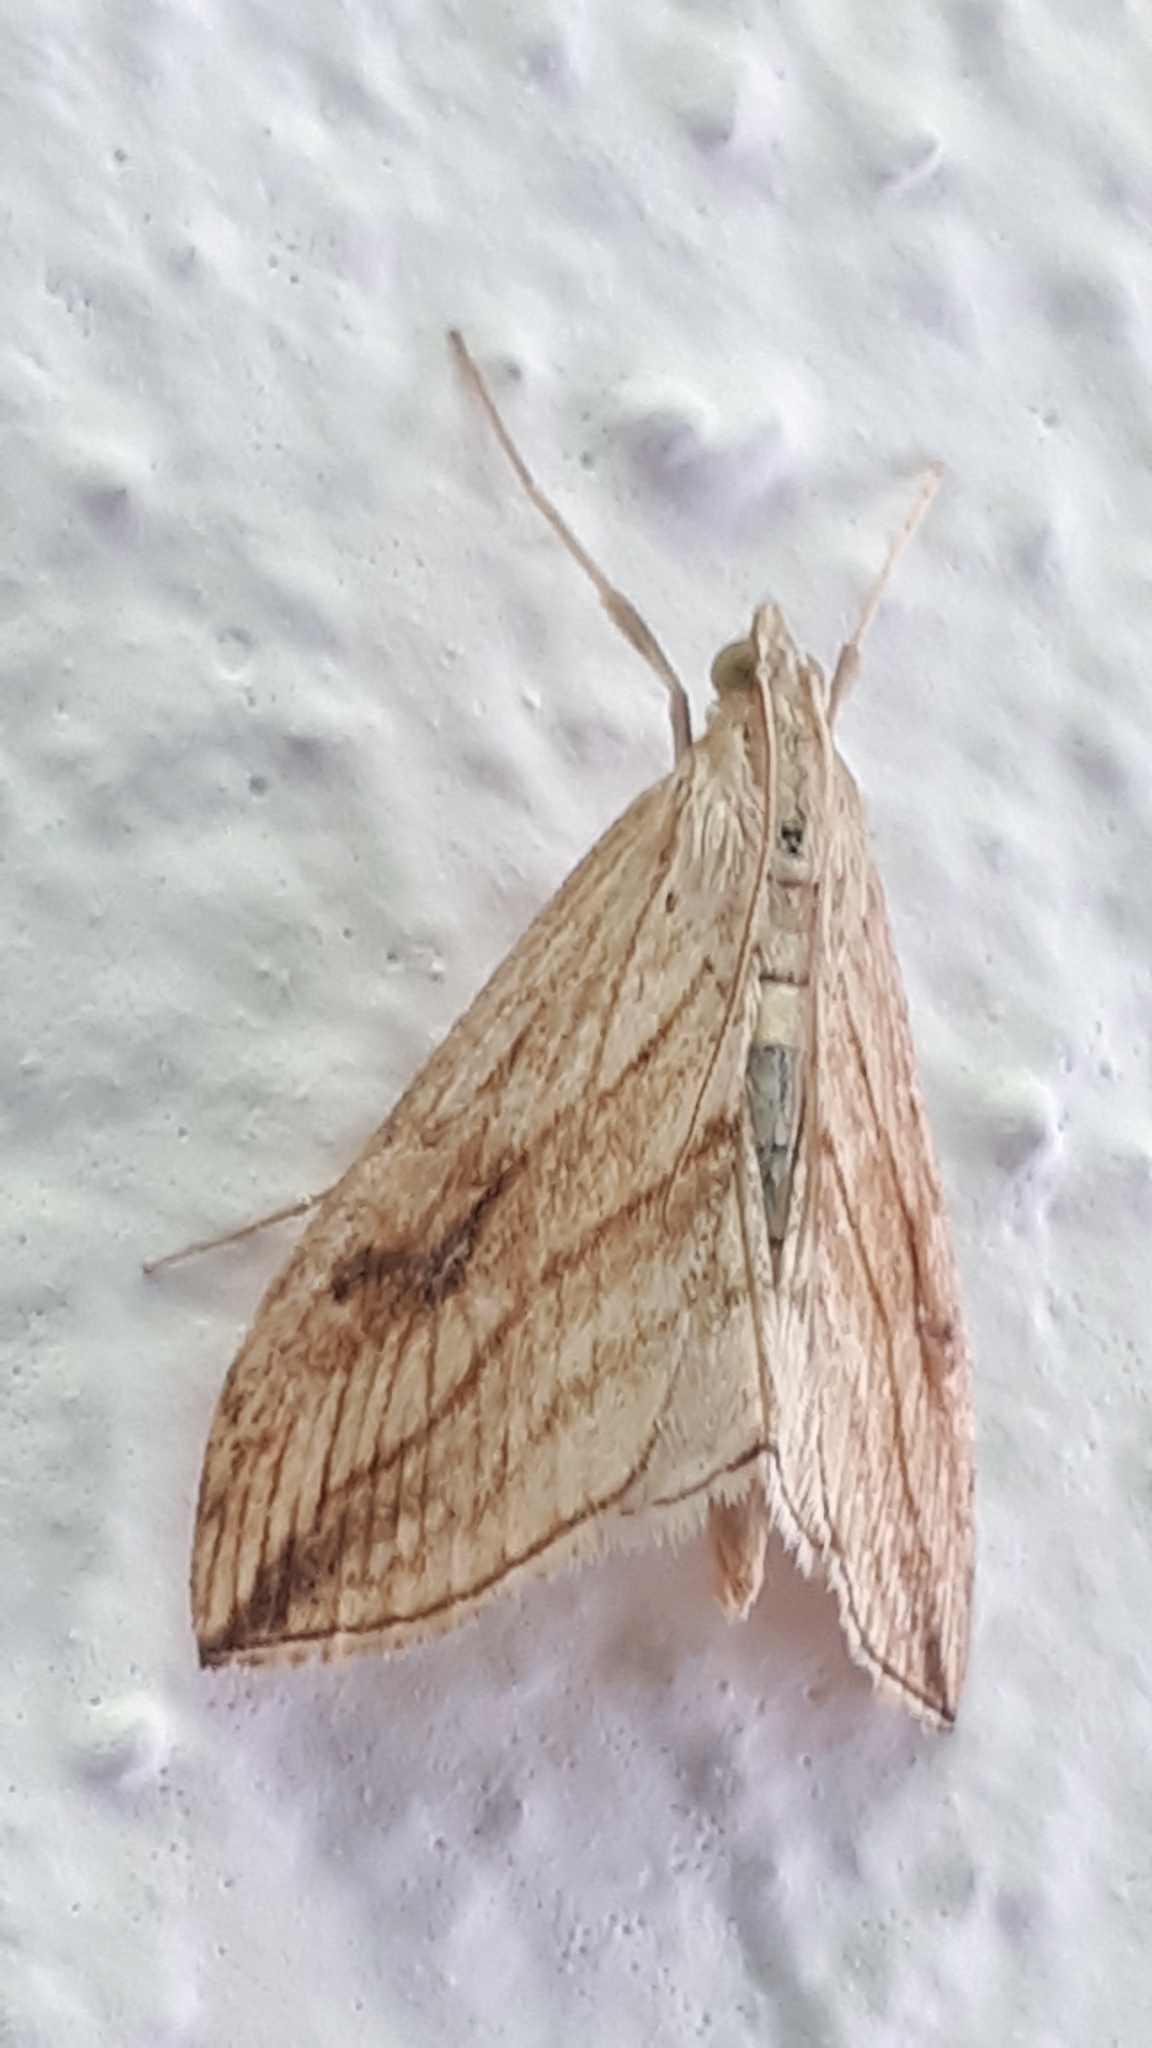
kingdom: Animalia
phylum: Arthropoda
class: Insecta
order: Lepidoptera
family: Crambidae
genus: Evergestis
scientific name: Evergestis forficalis
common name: Garden pebble
